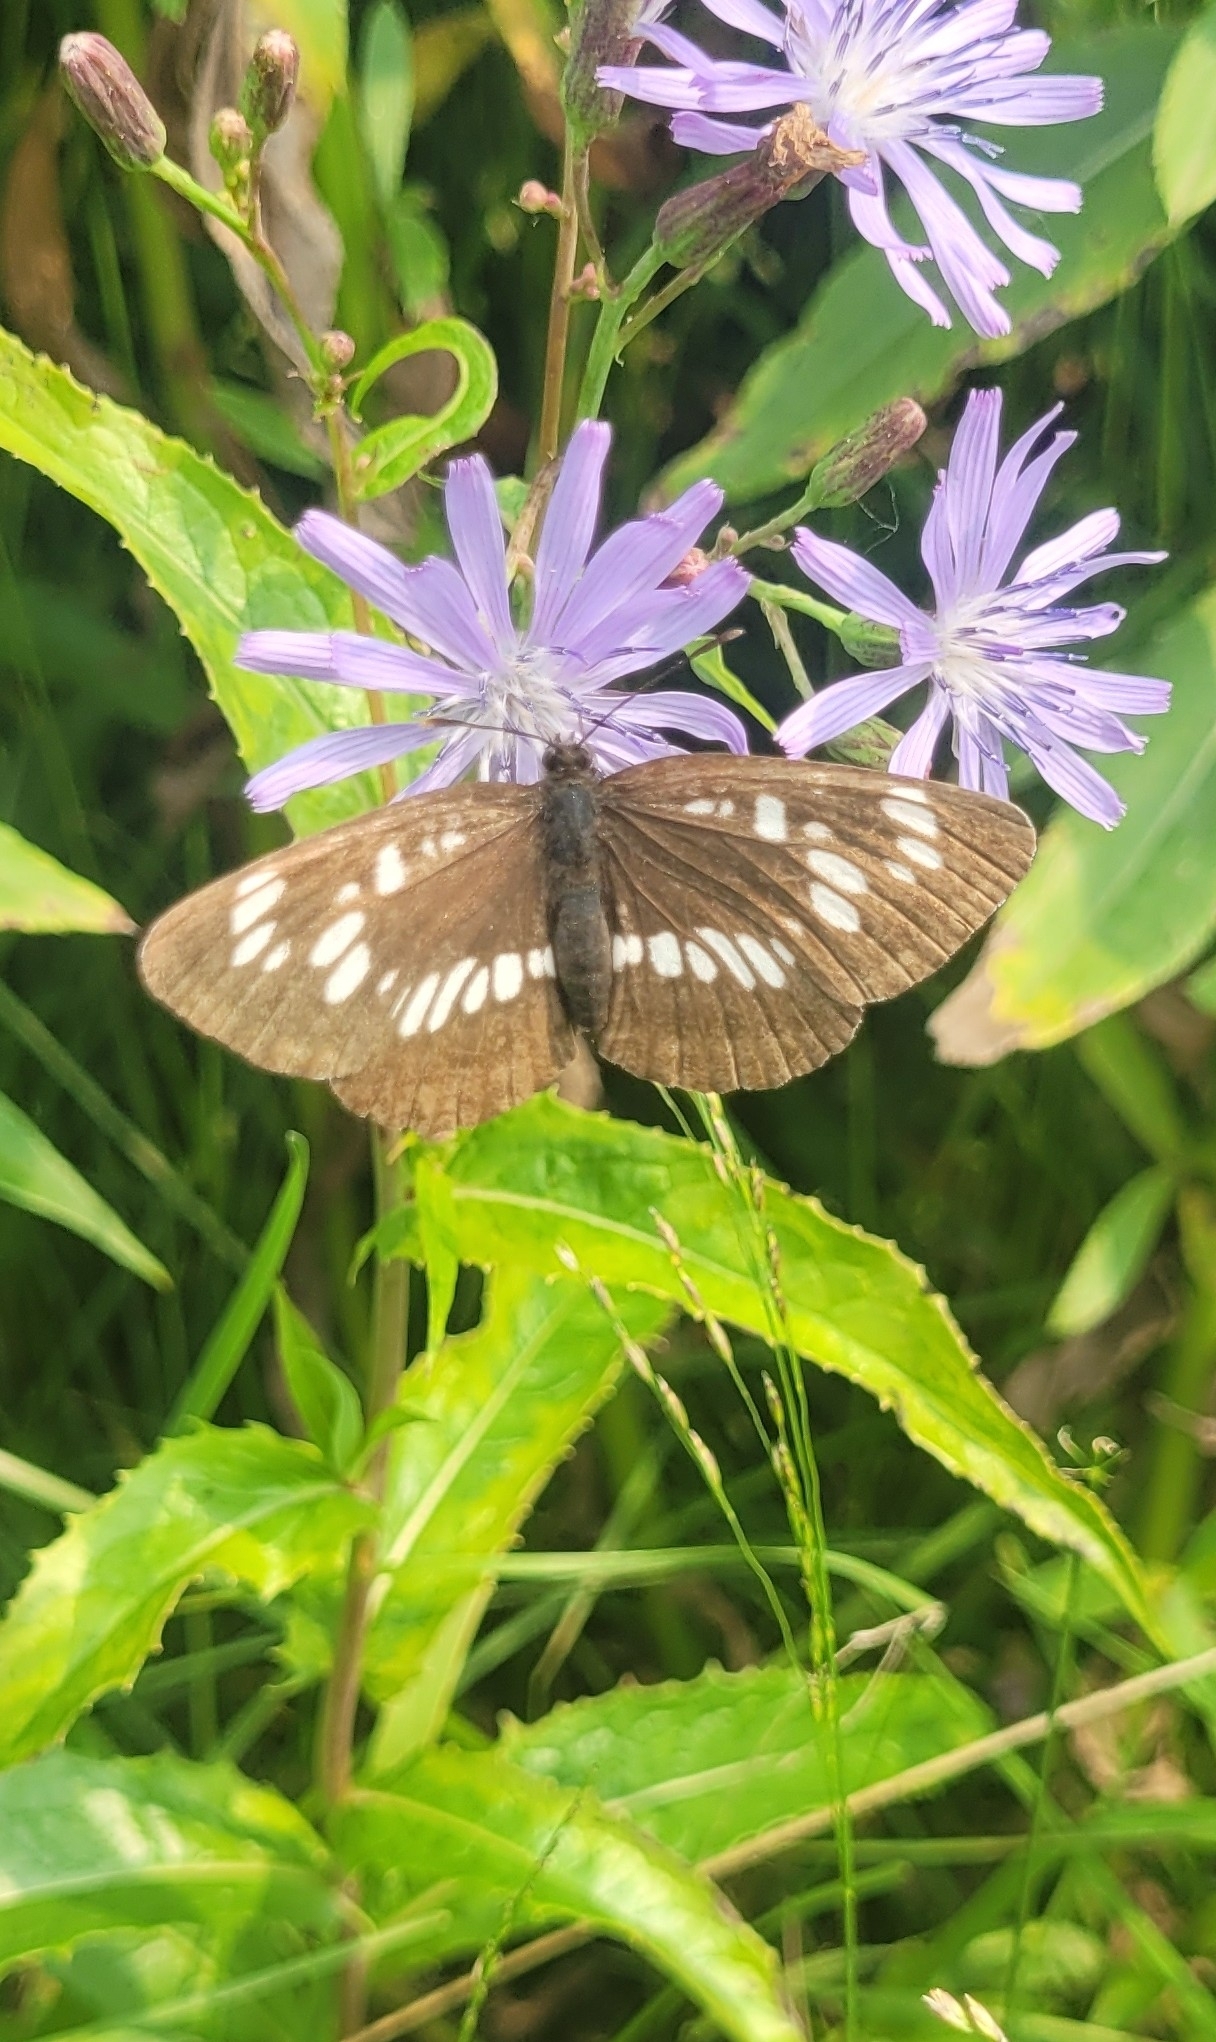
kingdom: Animalia
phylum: Arthropoda
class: Insecta
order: Lepidoptera
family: Nymphalidae
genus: Neptis
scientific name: Neptis rivularis
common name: Hungarian glider
